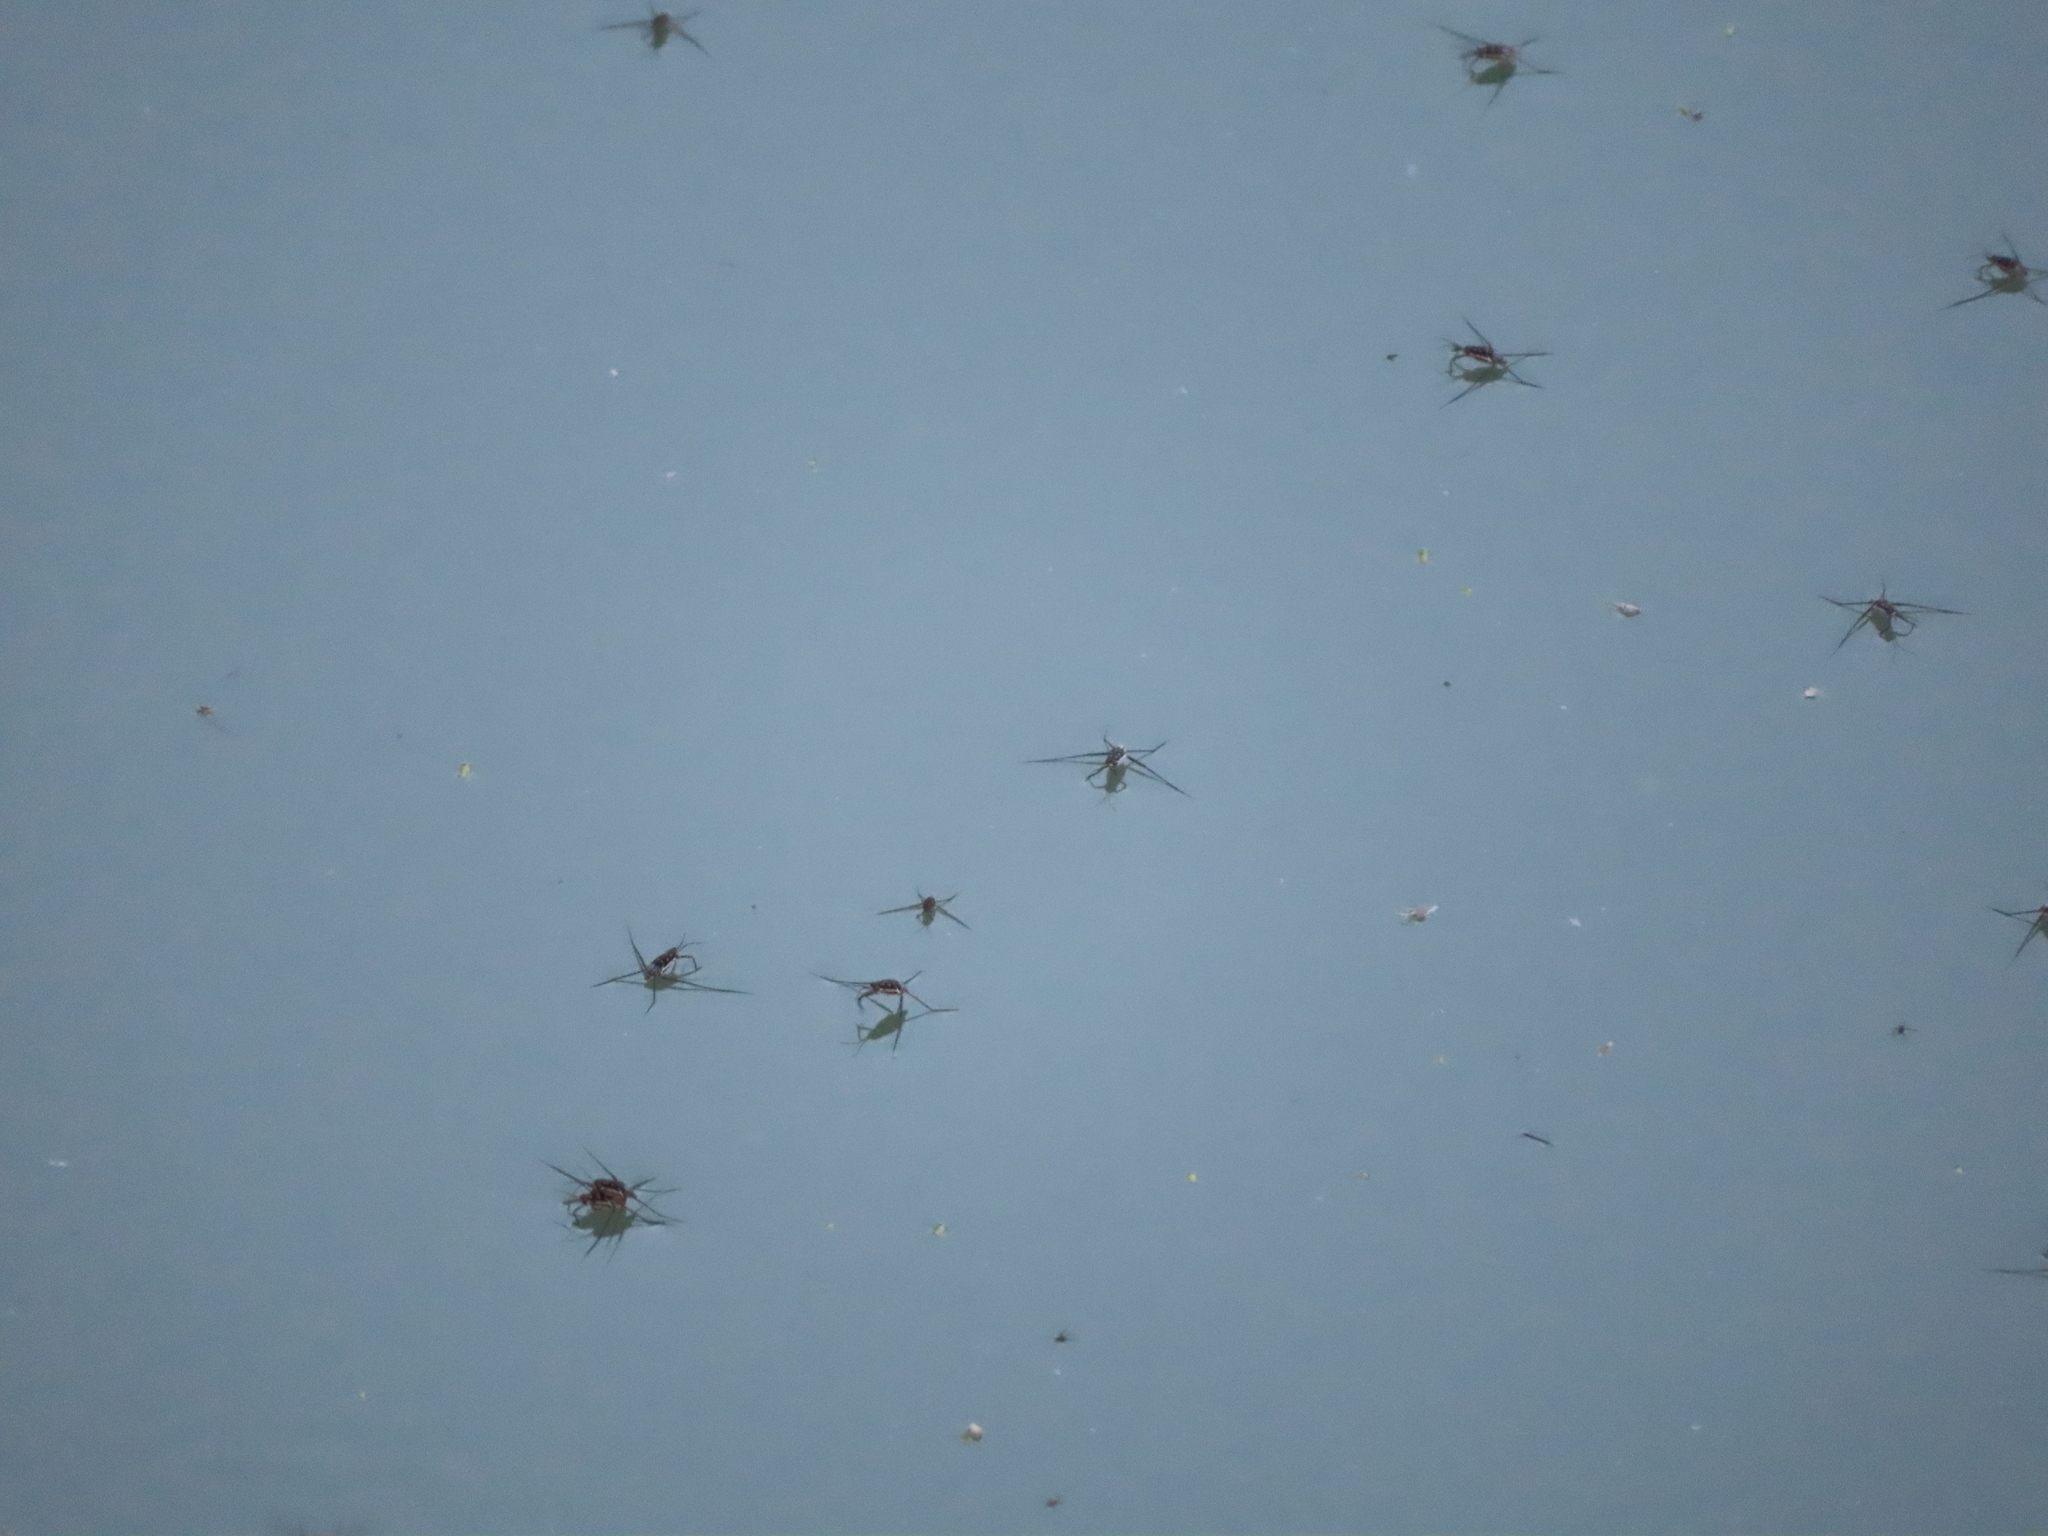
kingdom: Animalia
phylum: Arthropoda
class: Insecta
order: Hemiptera
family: Gerridae
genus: Trepobates
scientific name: Trepobates
